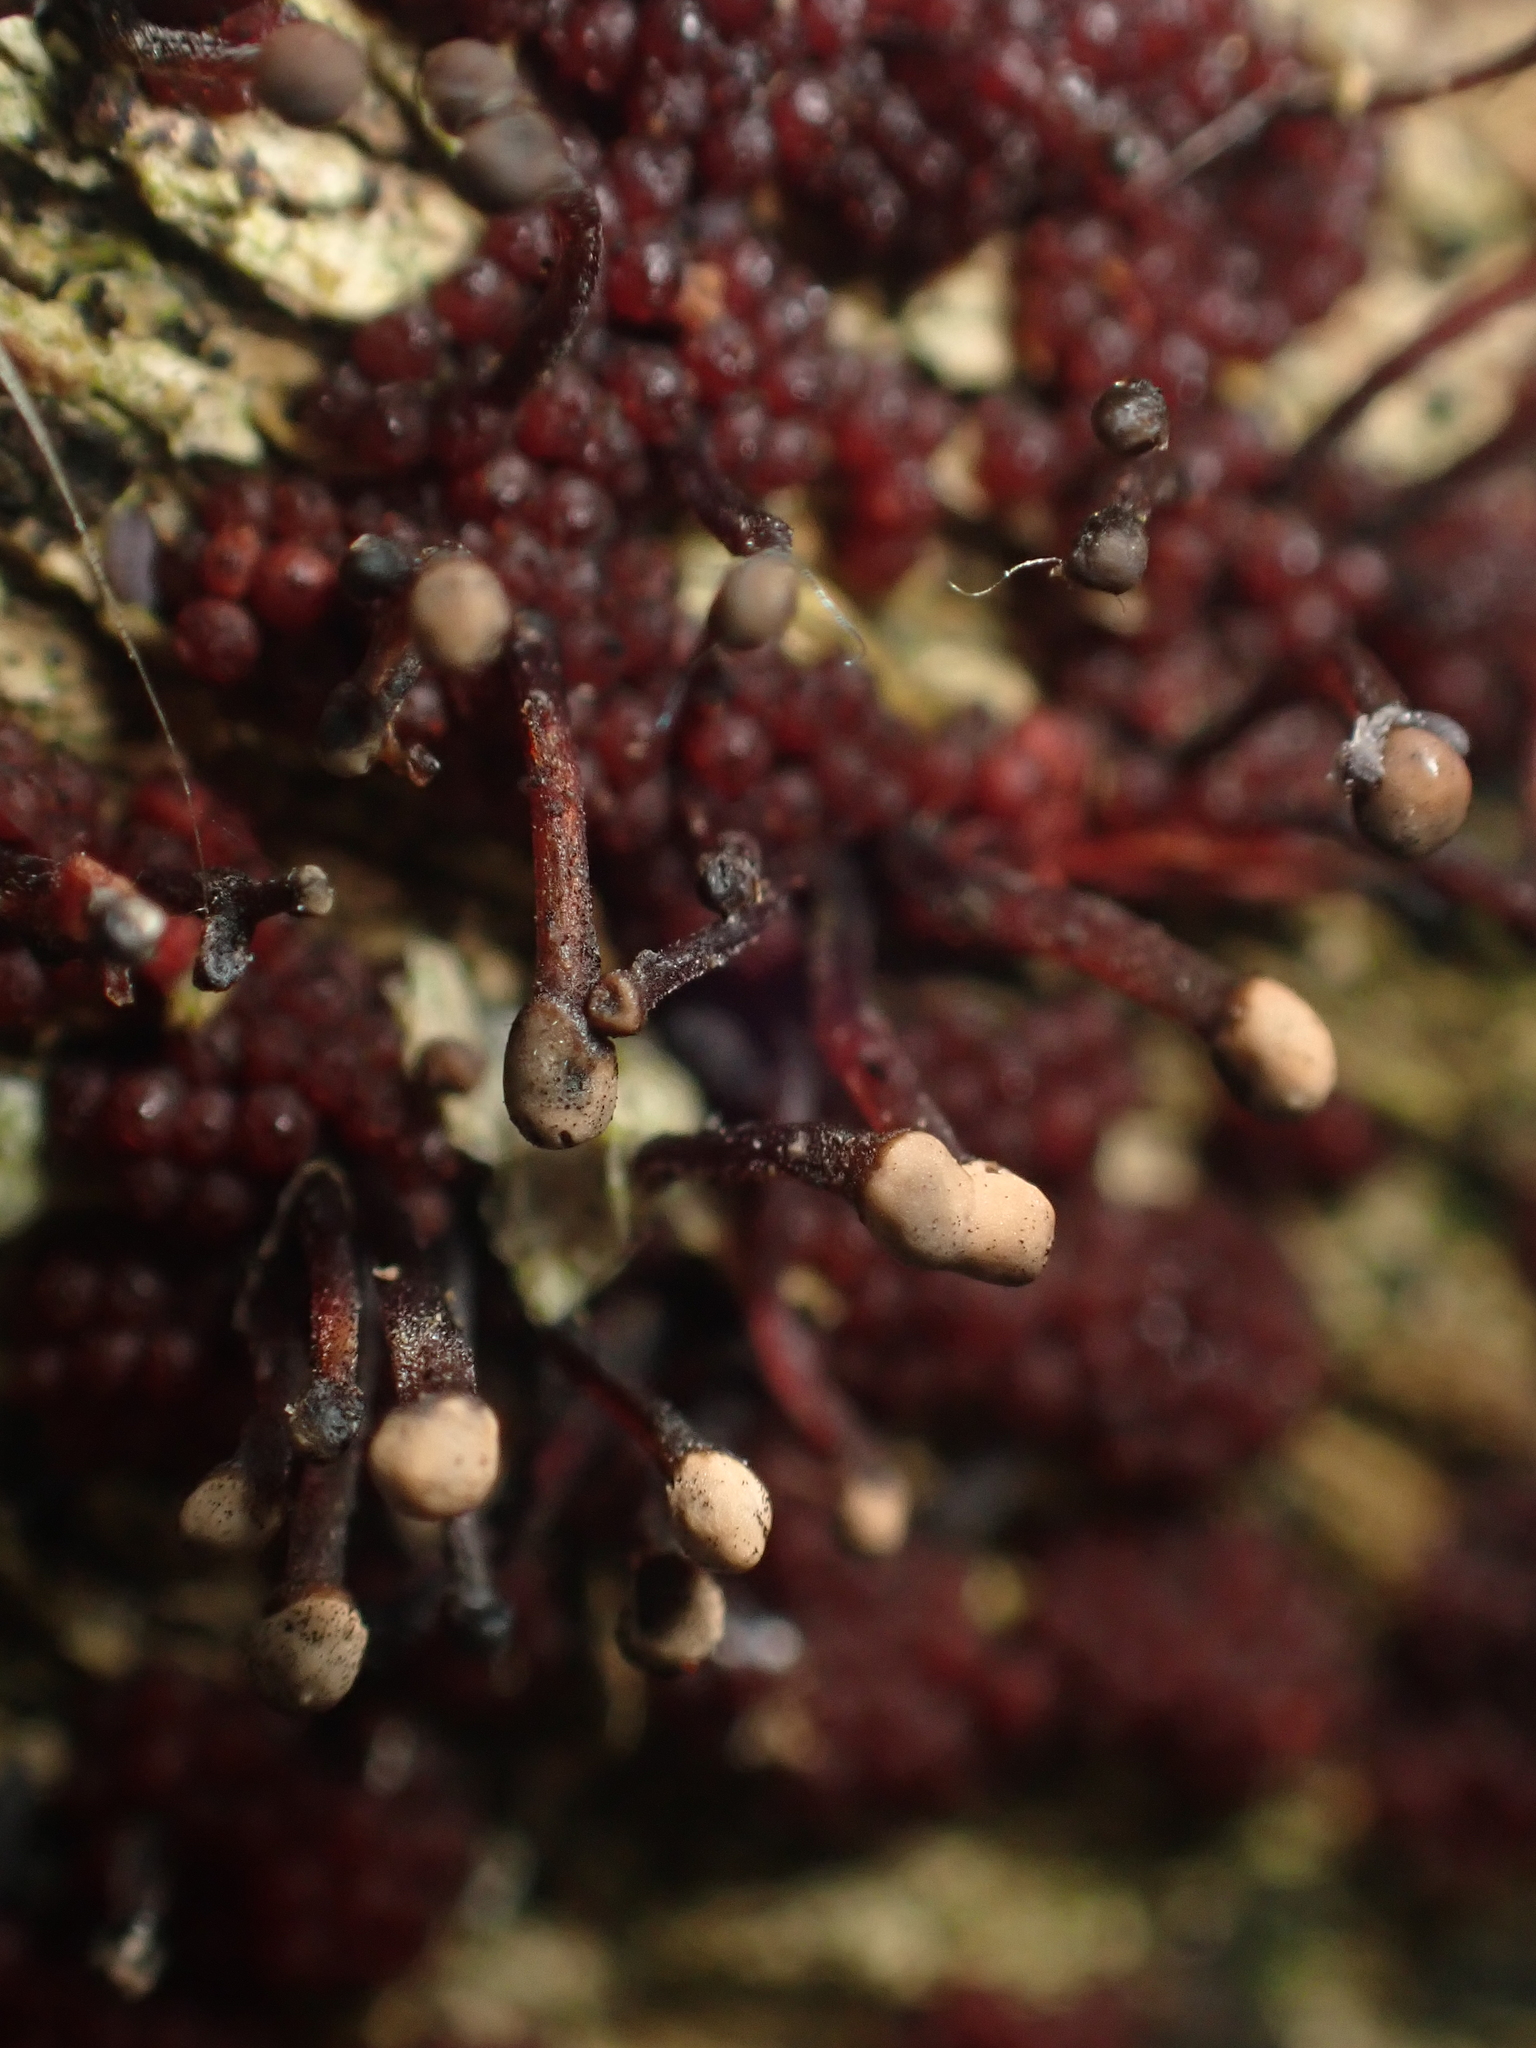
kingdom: Fungi
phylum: Ascomycota
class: Sordariomycetes
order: Hypocreales
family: Nectriaceae
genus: Murinectria
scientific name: Murinectria polythalama
